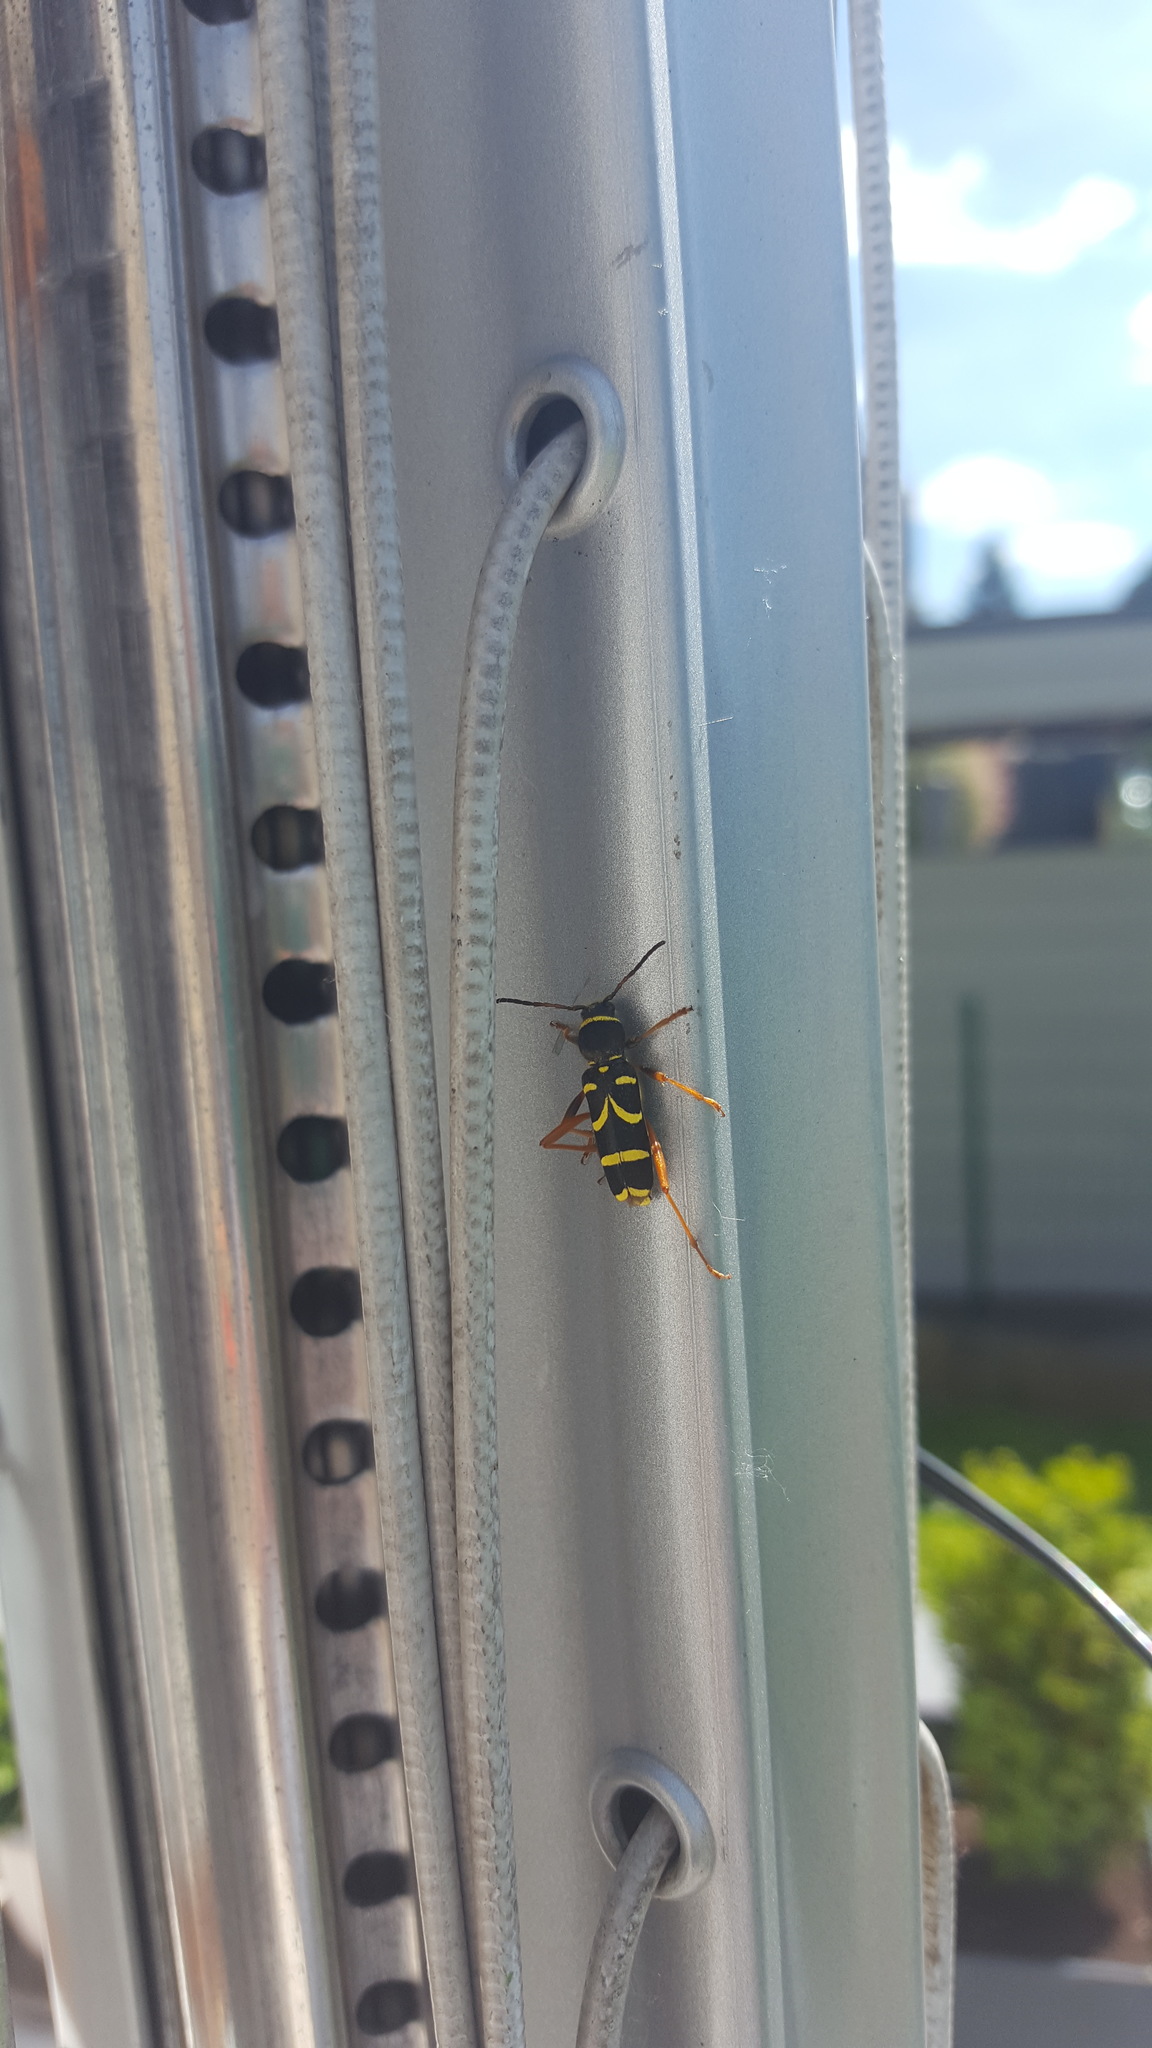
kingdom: Animalia
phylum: Arthropoda
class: Insecta
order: Coleoptera
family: Cerambycidae
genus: Clytus
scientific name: Clytus arietis
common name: Wasp beetle
